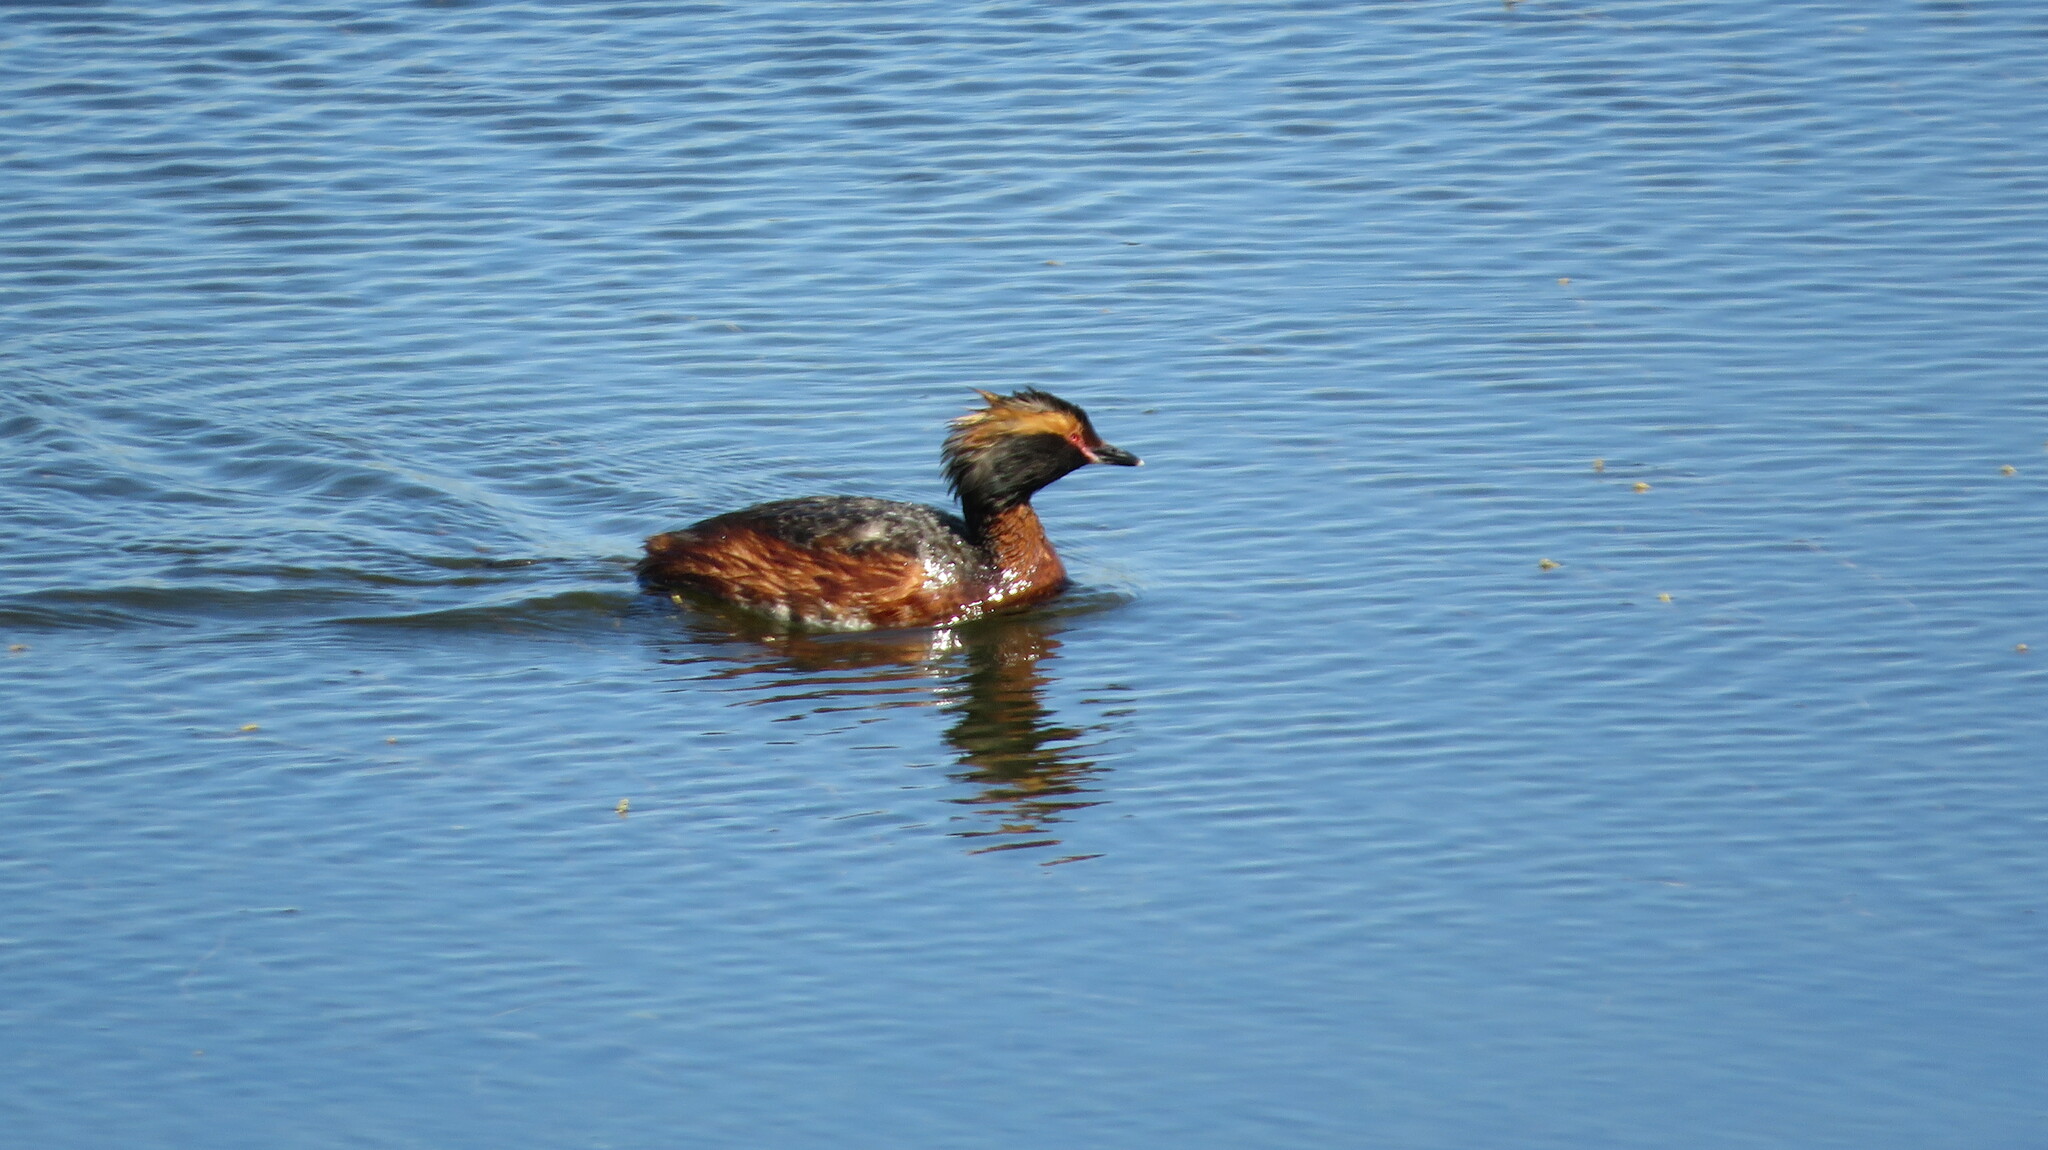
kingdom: Animalia
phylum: Chordata
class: Aves
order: Podicipediformes
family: Podicipedidae
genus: Podiceps
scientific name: Podiceps auritus
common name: Horned grebe
